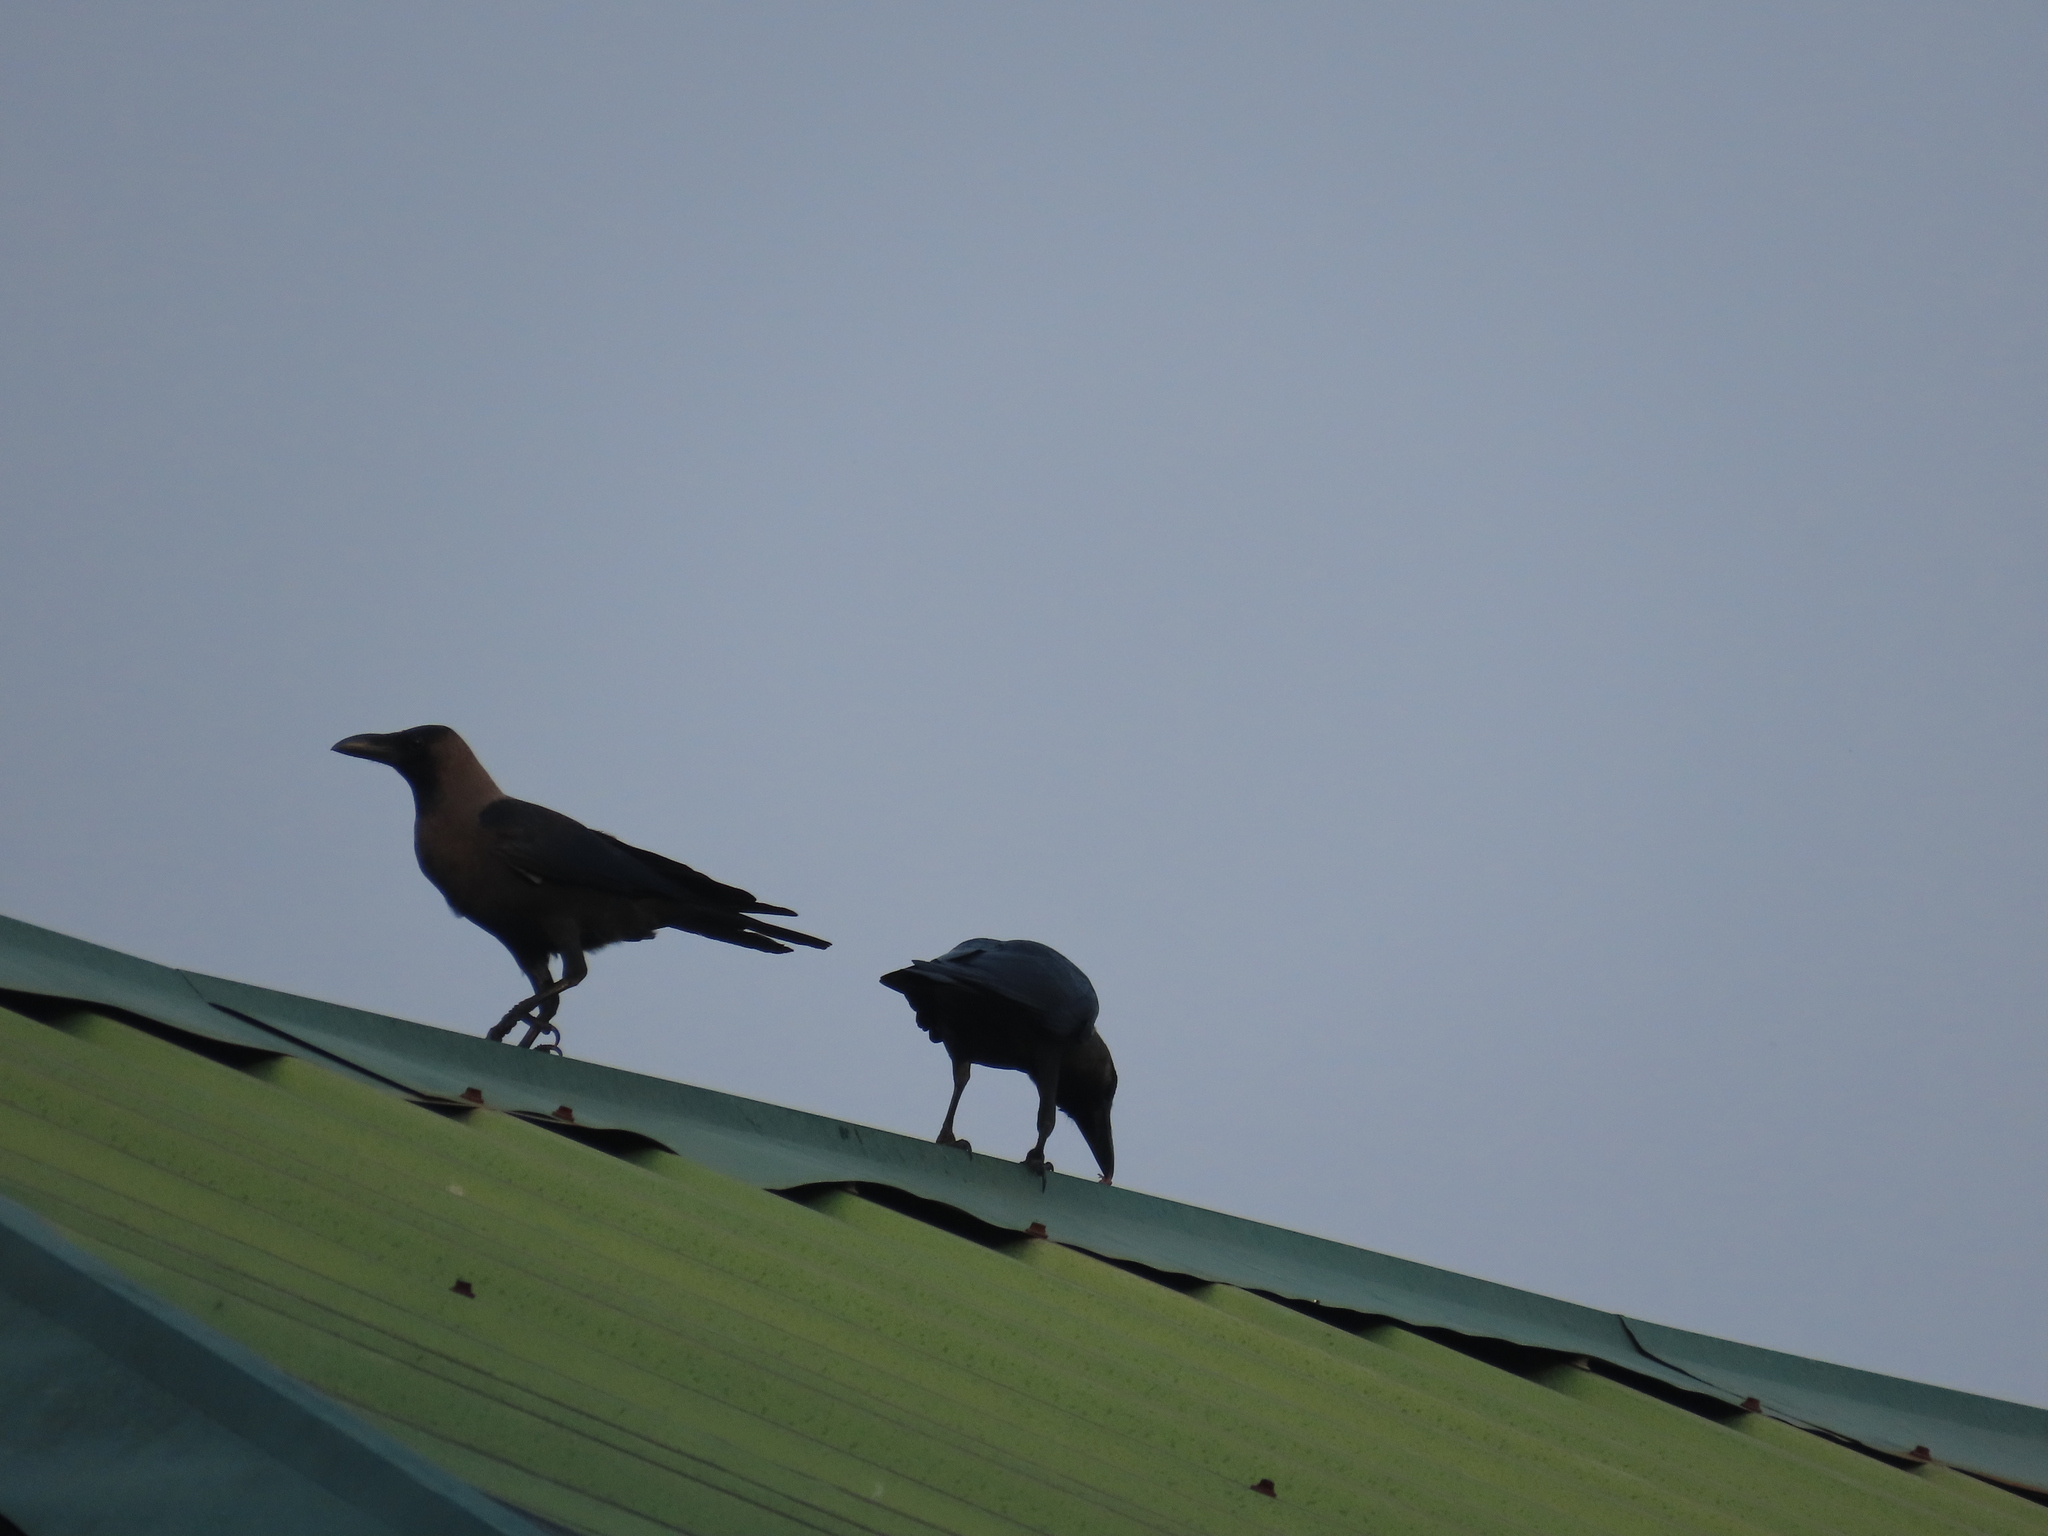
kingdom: Animalia
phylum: Chordata
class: Aves
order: Passeriformes
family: Corvidae
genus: Corvus
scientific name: Corvus splendens
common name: House crow
